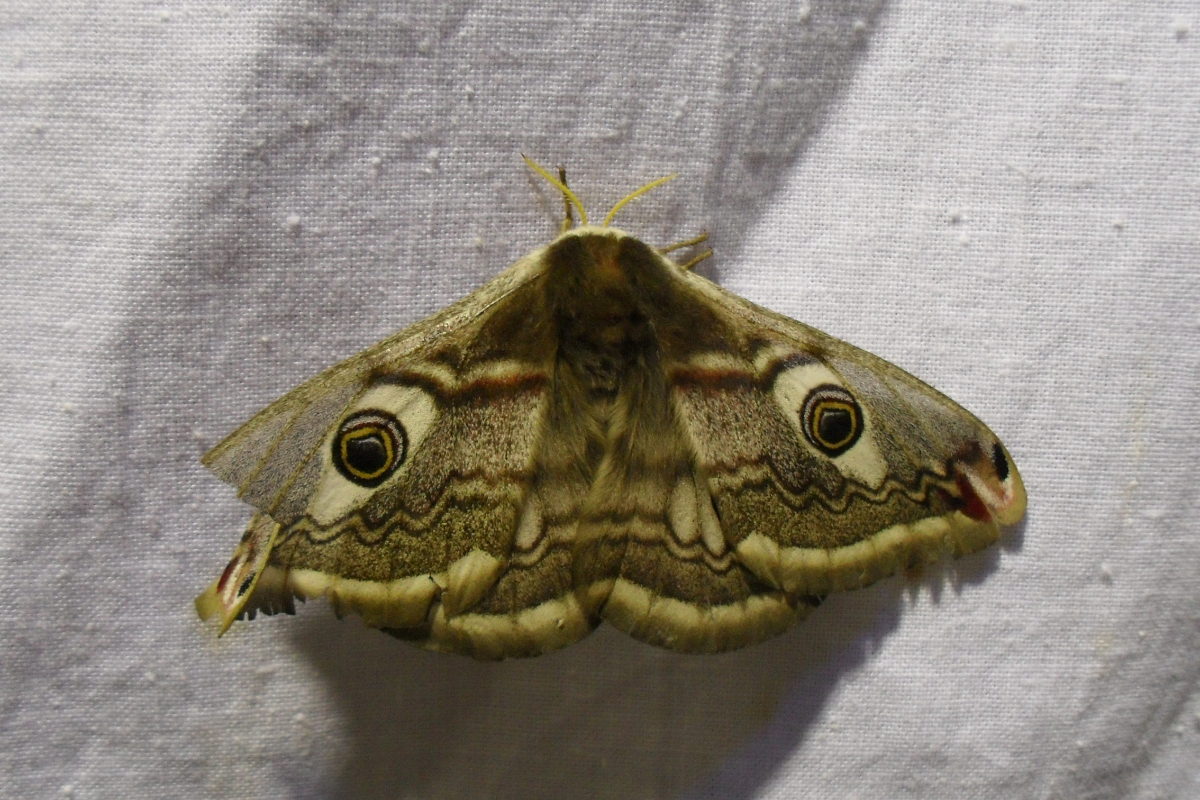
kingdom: Animalia
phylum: Arthropoda
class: Insecta
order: Lepidoptera
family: Saturniidae
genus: Saturnia
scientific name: Saturnia pavonia
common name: Emperor moth
